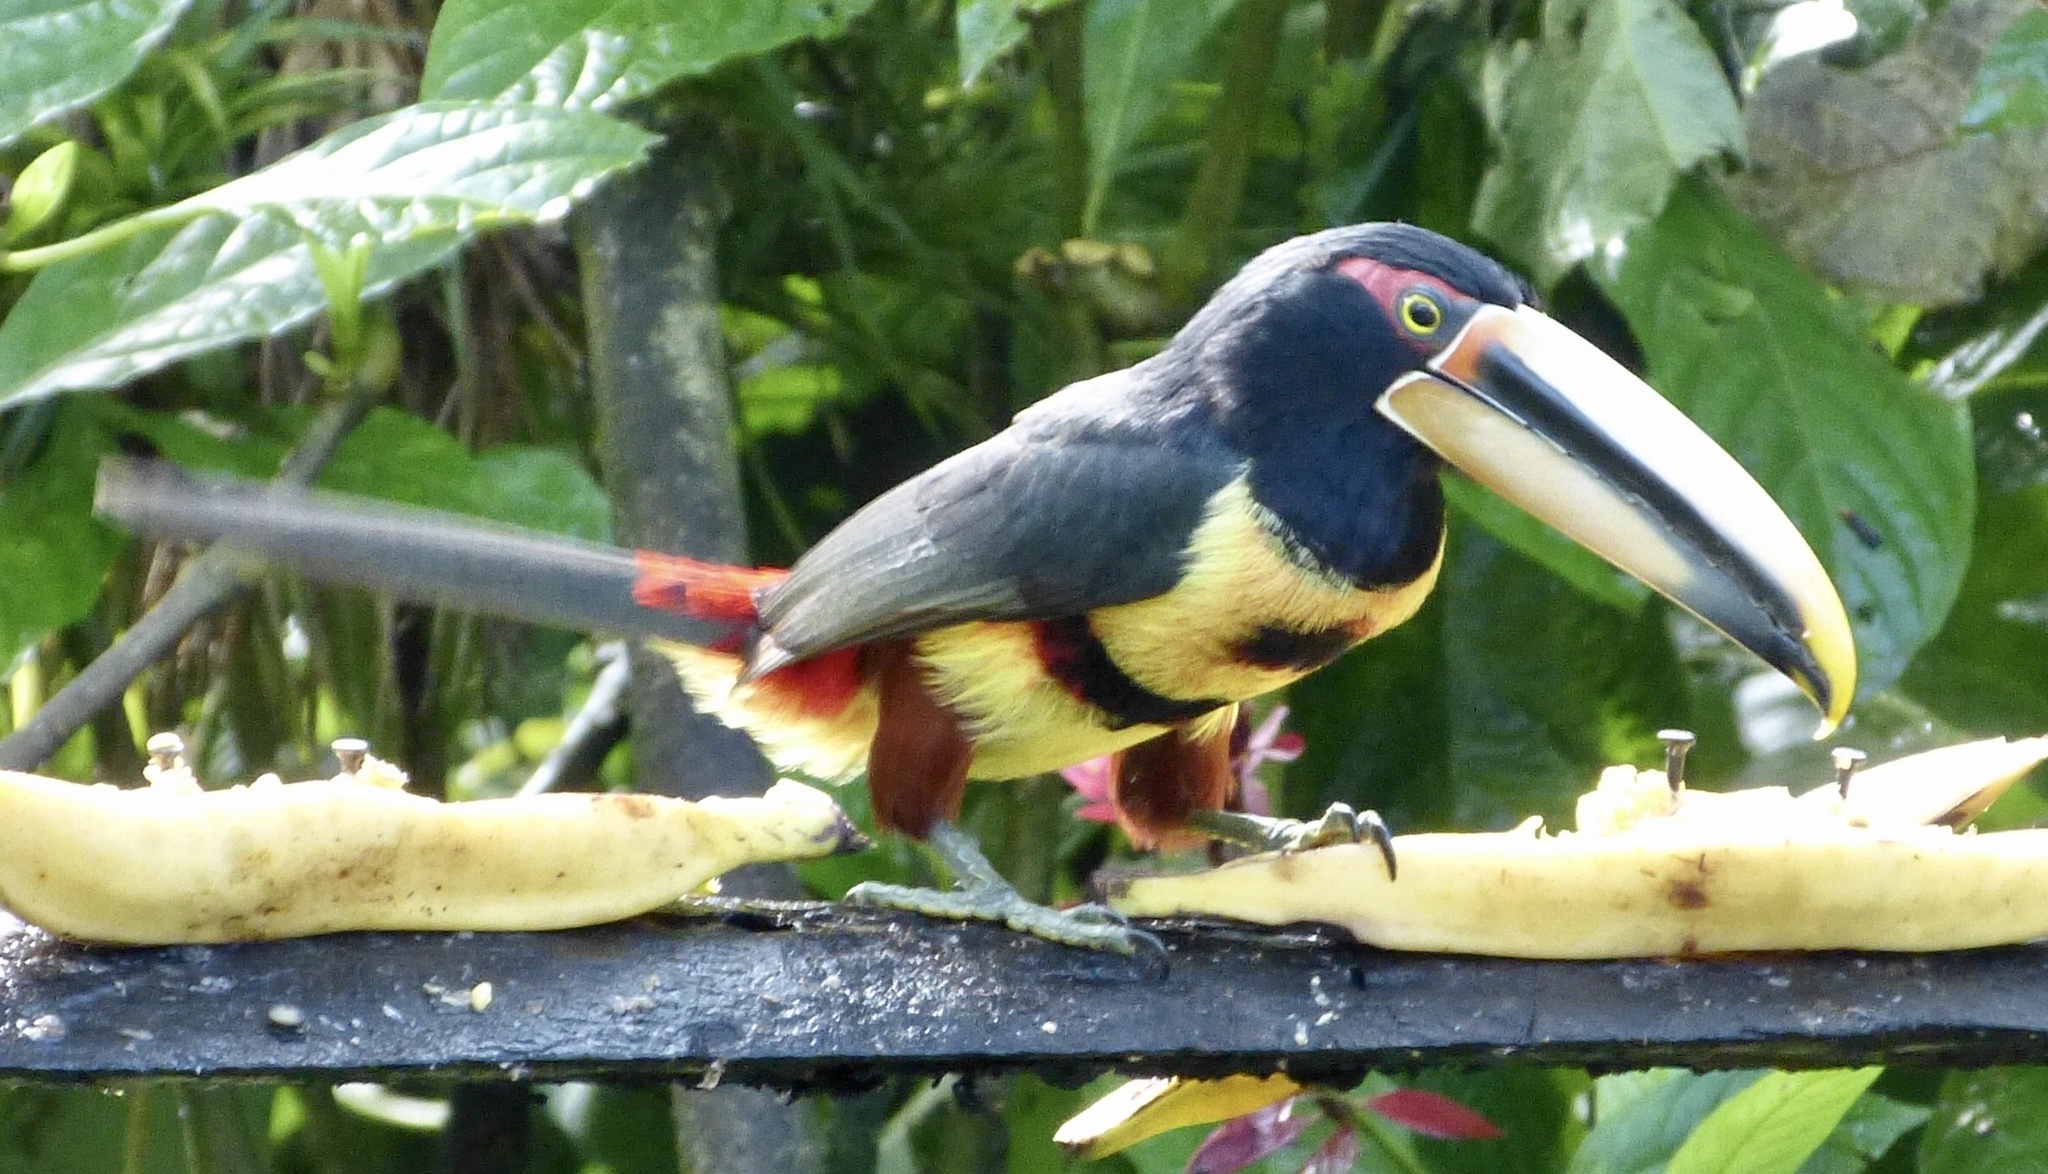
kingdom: Animalia
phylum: Chordata
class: Aves
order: Piciformes
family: Ramphastidae
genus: Pteroglossus
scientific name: Pteroglossus torquatus
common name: Collared aracari
